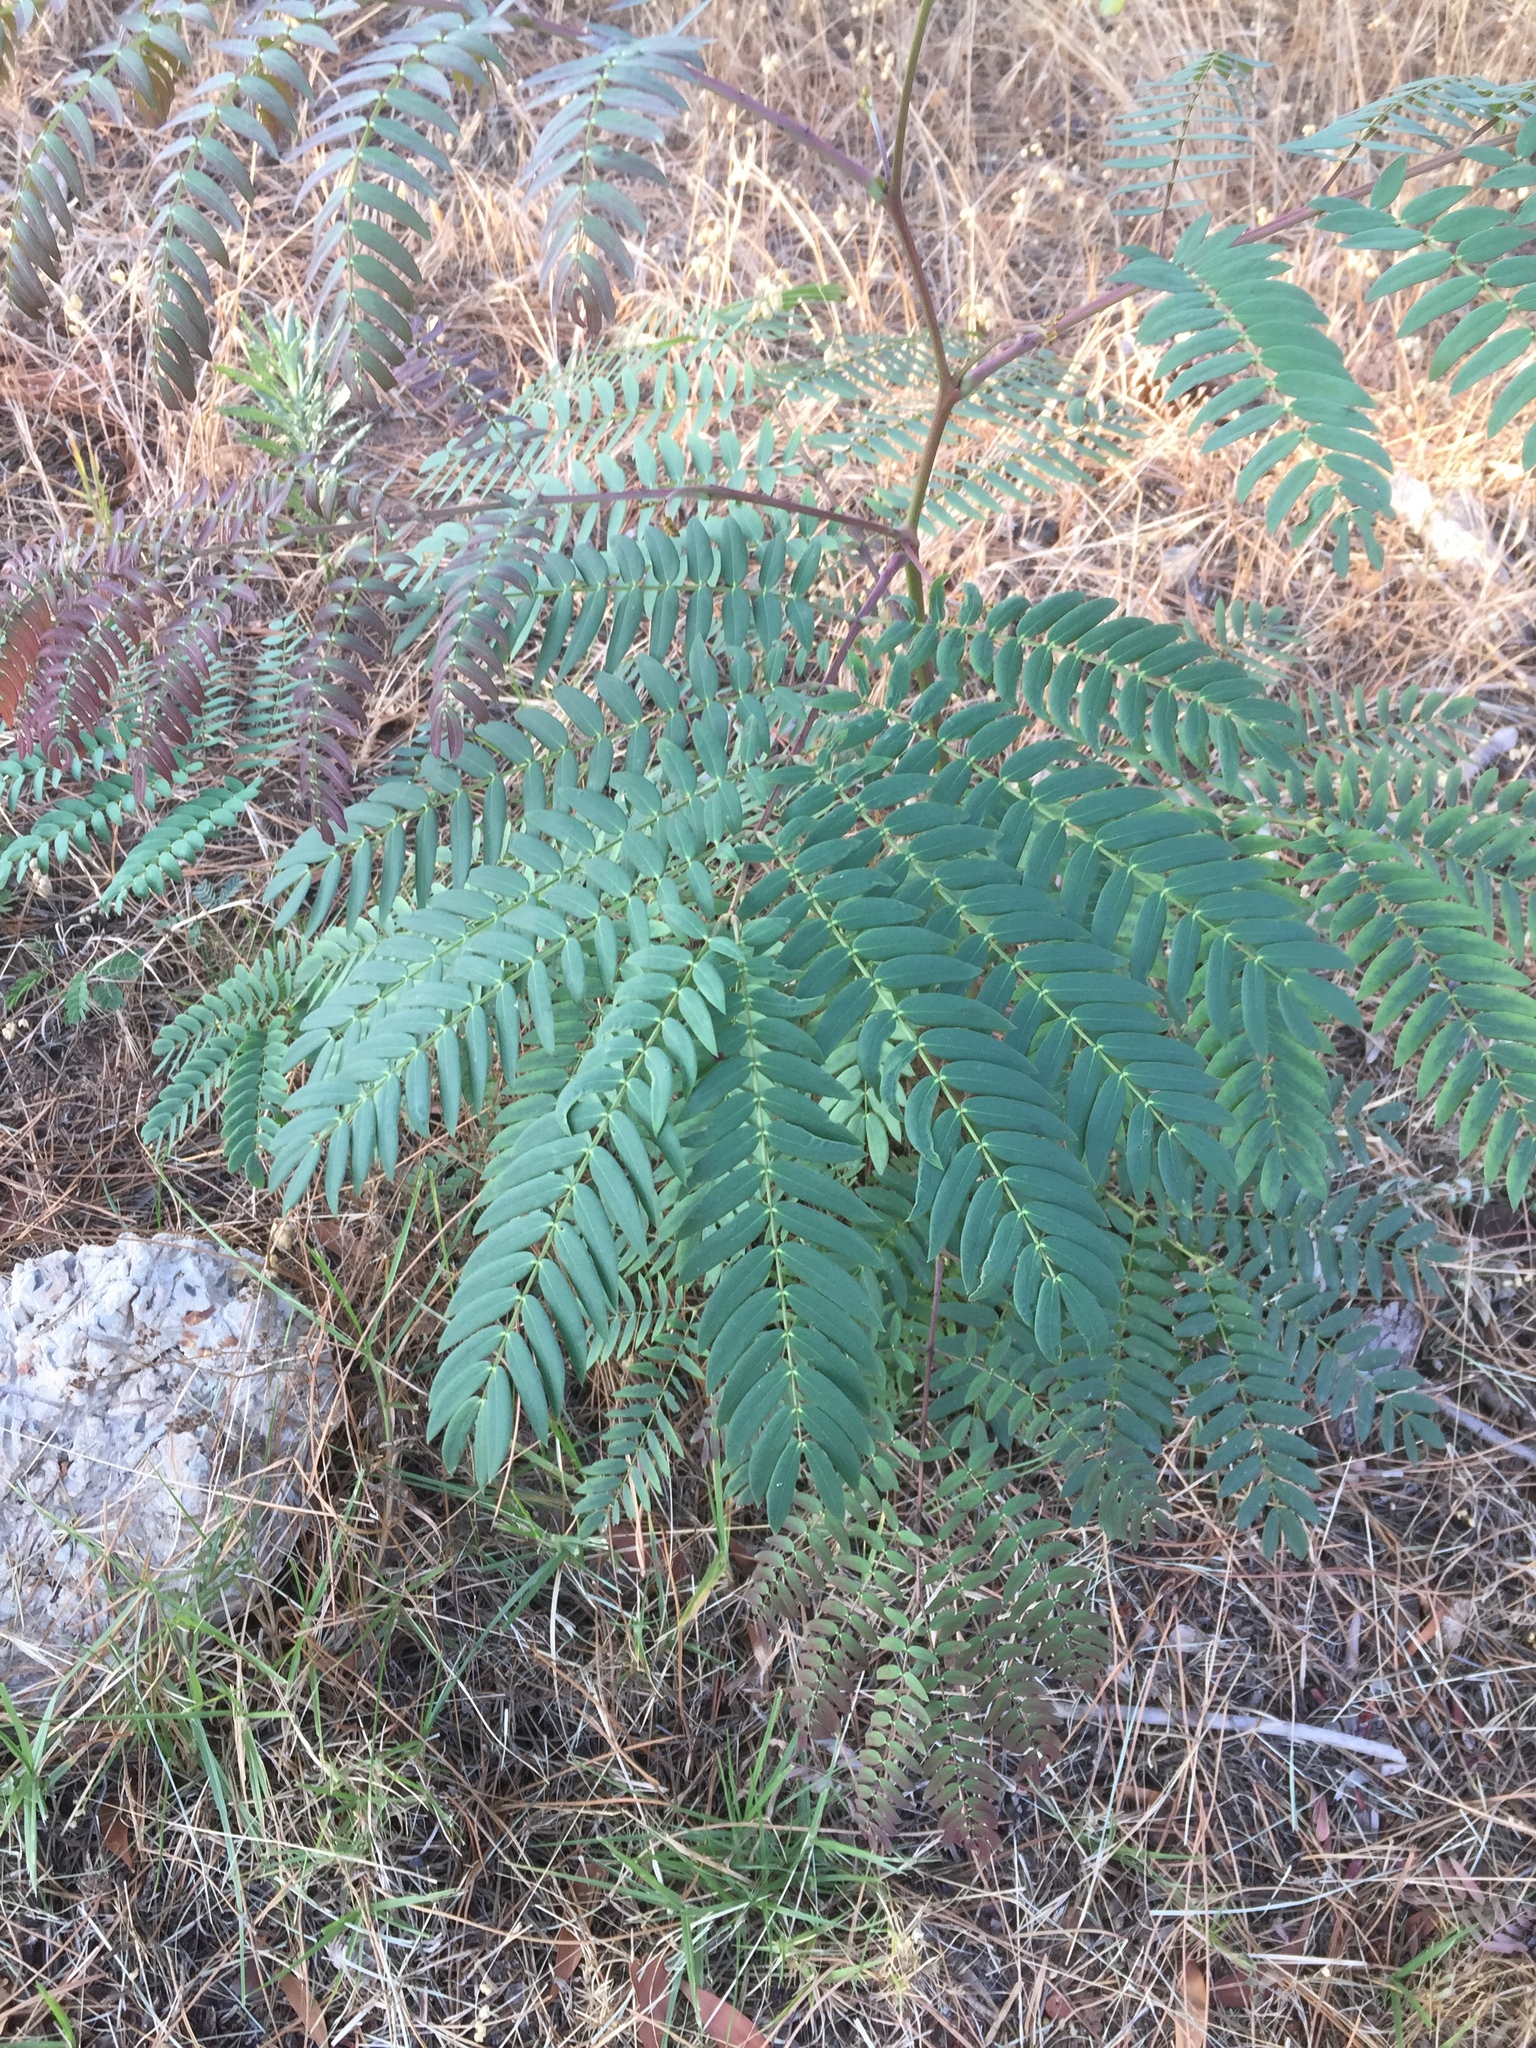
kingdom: Plantae
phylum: Tracheophyta
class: Magnoliopsida
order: Fabales
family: Fabaceae
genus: Acacia
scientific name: Acacia elata
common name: Cedar wattle
